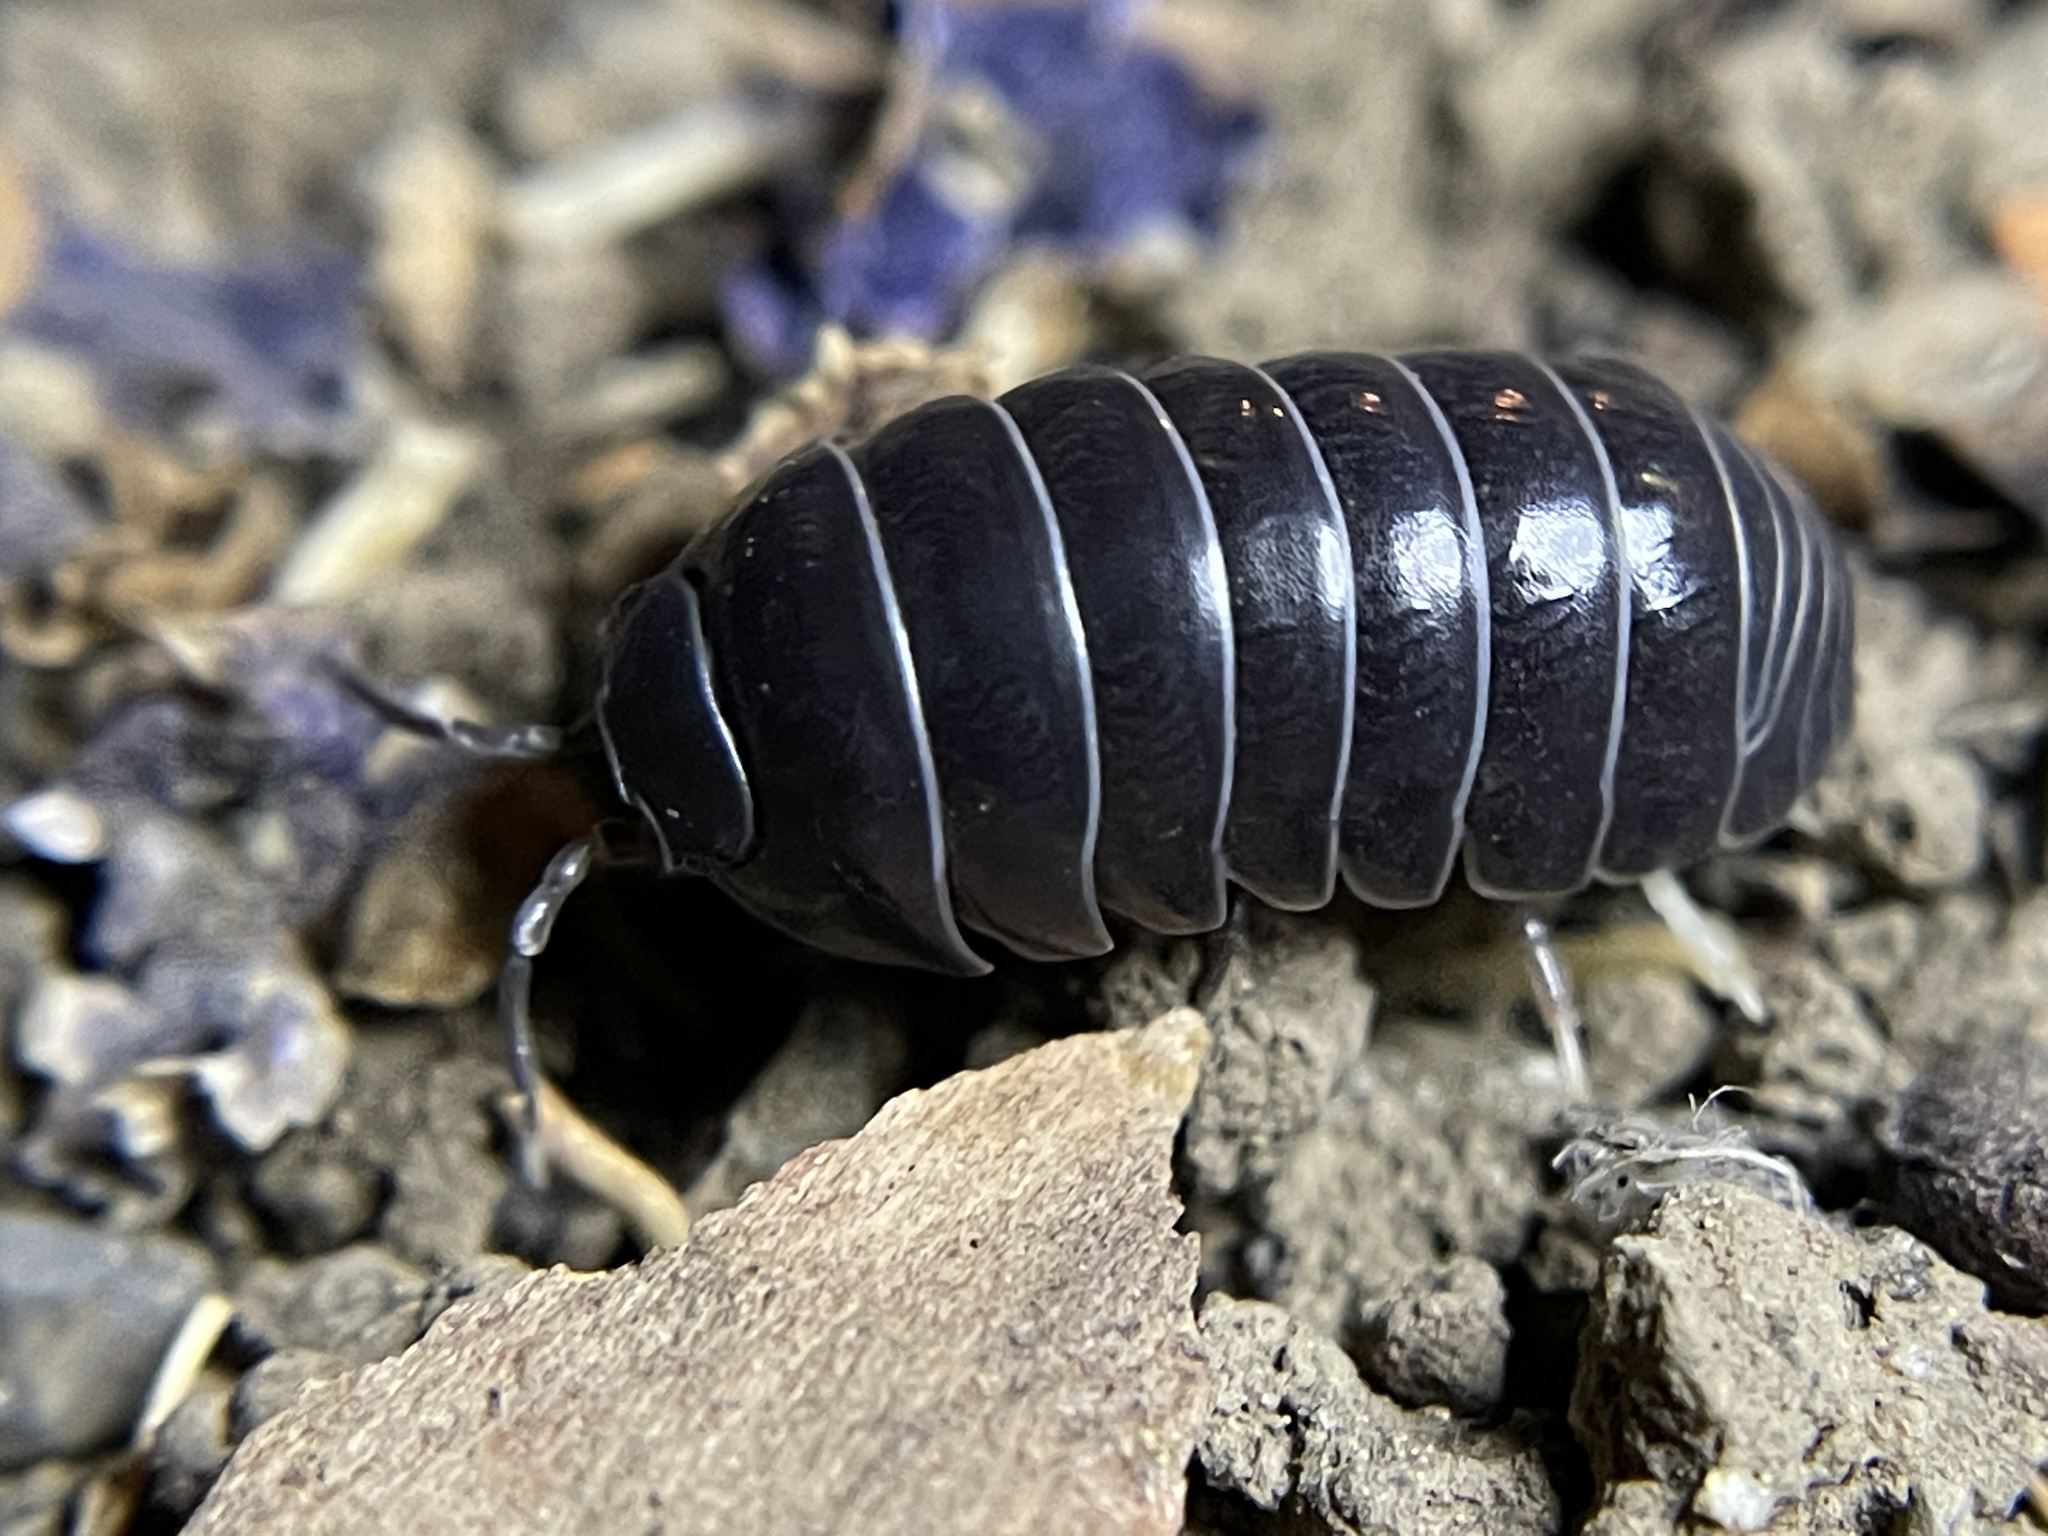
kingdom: Animalia
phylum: Arthropoda
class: Malacostraca
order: Isopoda
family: Armadillidiidae
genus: Armadillidium
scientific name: Armadillidium vulgare
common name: Common pill woodlouse
